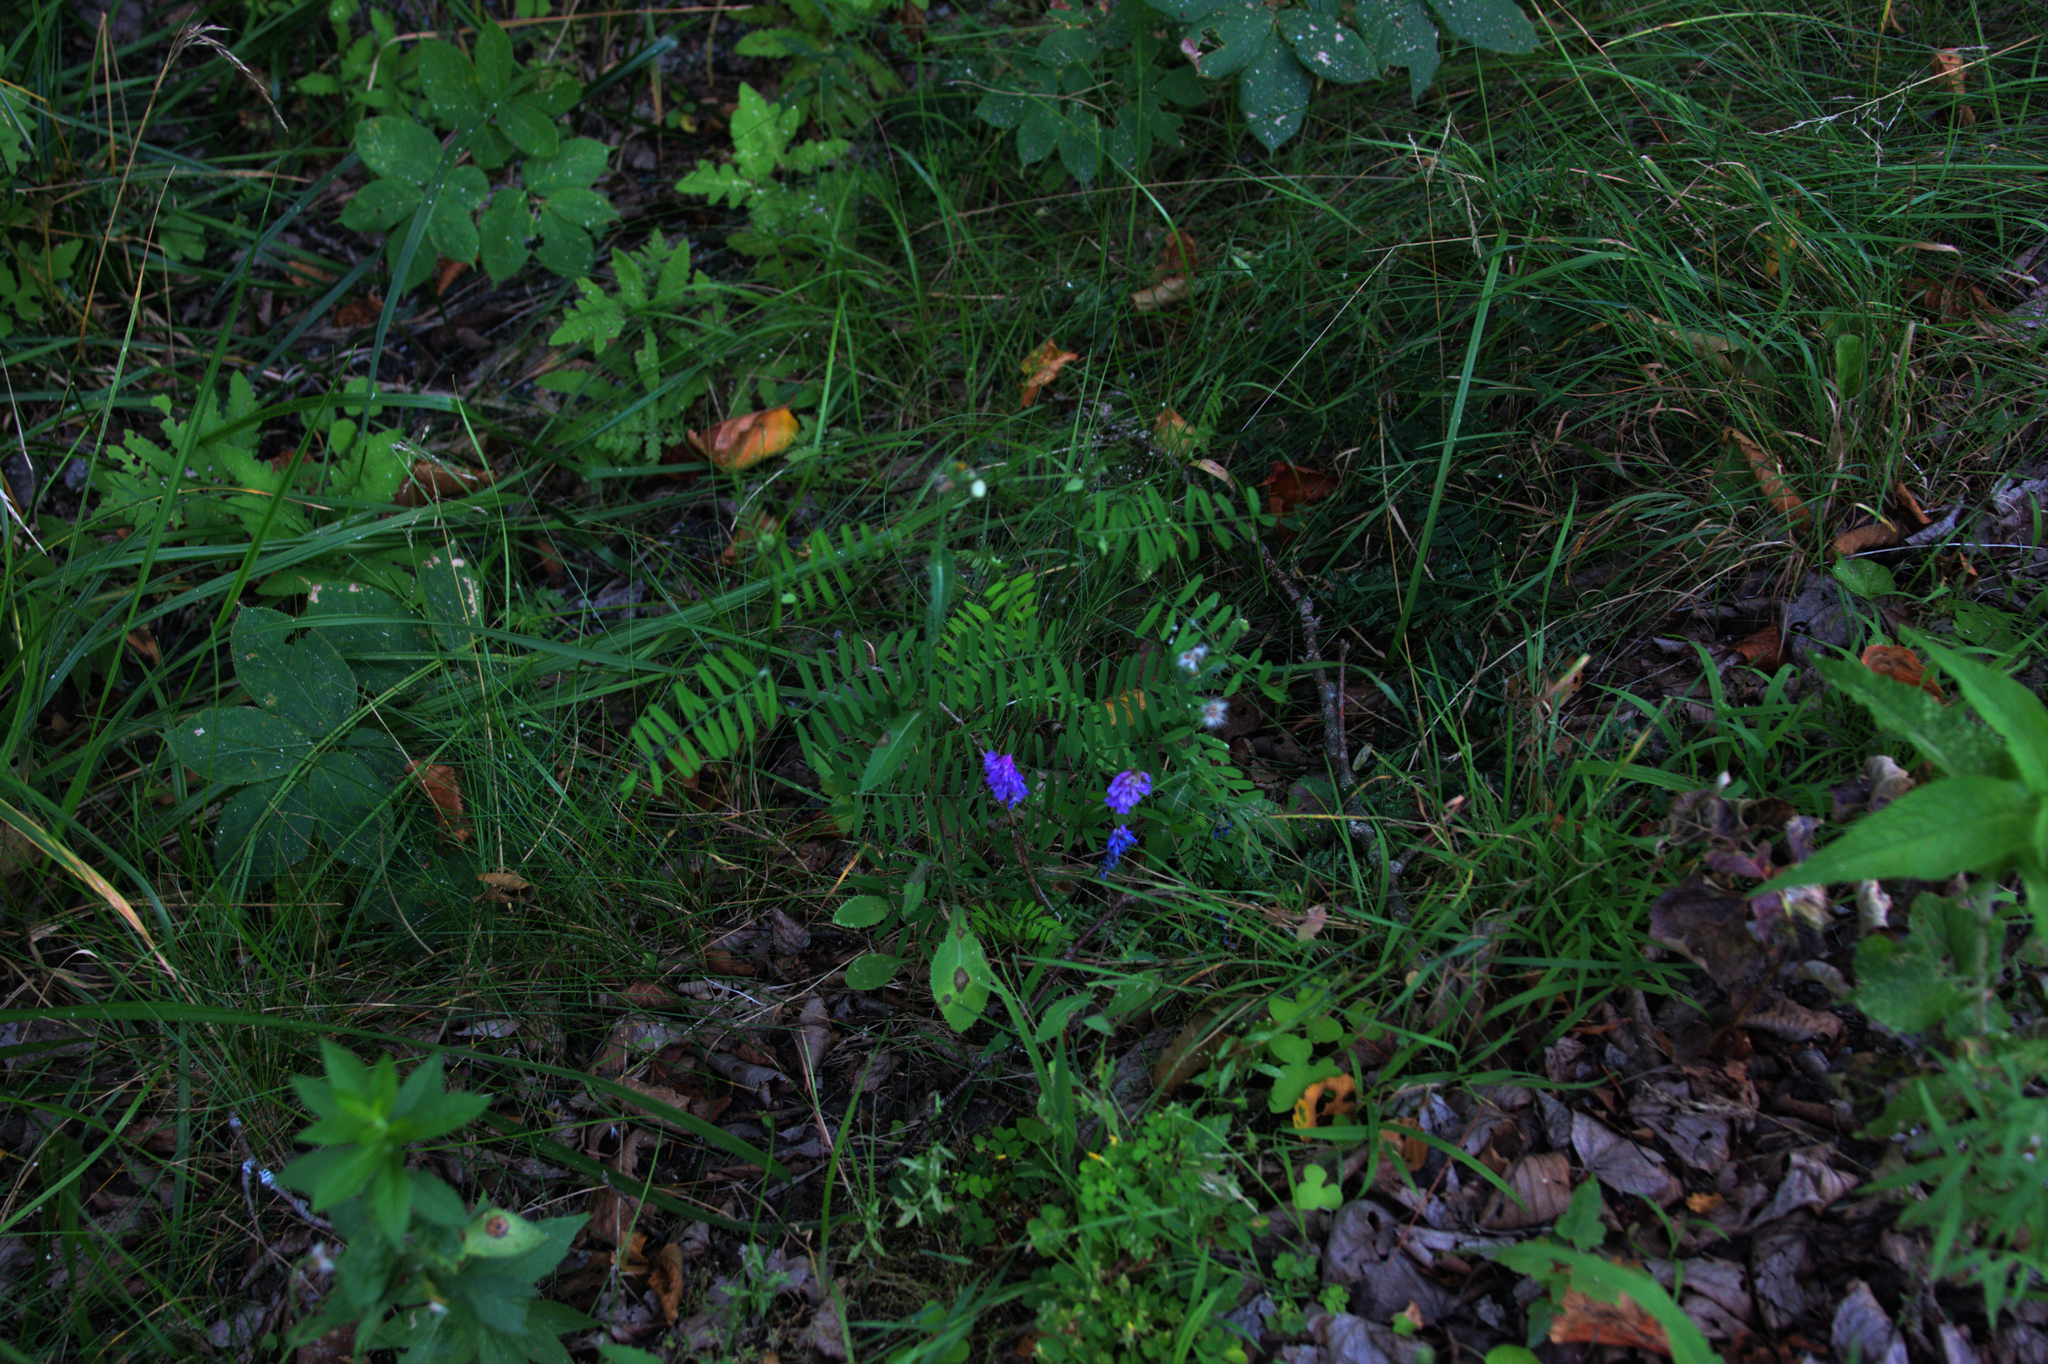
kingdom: Plantae
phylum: Tracheophyta
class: Magnoliopsida
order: Fabales
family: Fabaceae
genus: Vicia
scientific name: Vicia cracca
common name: Bird vetch
